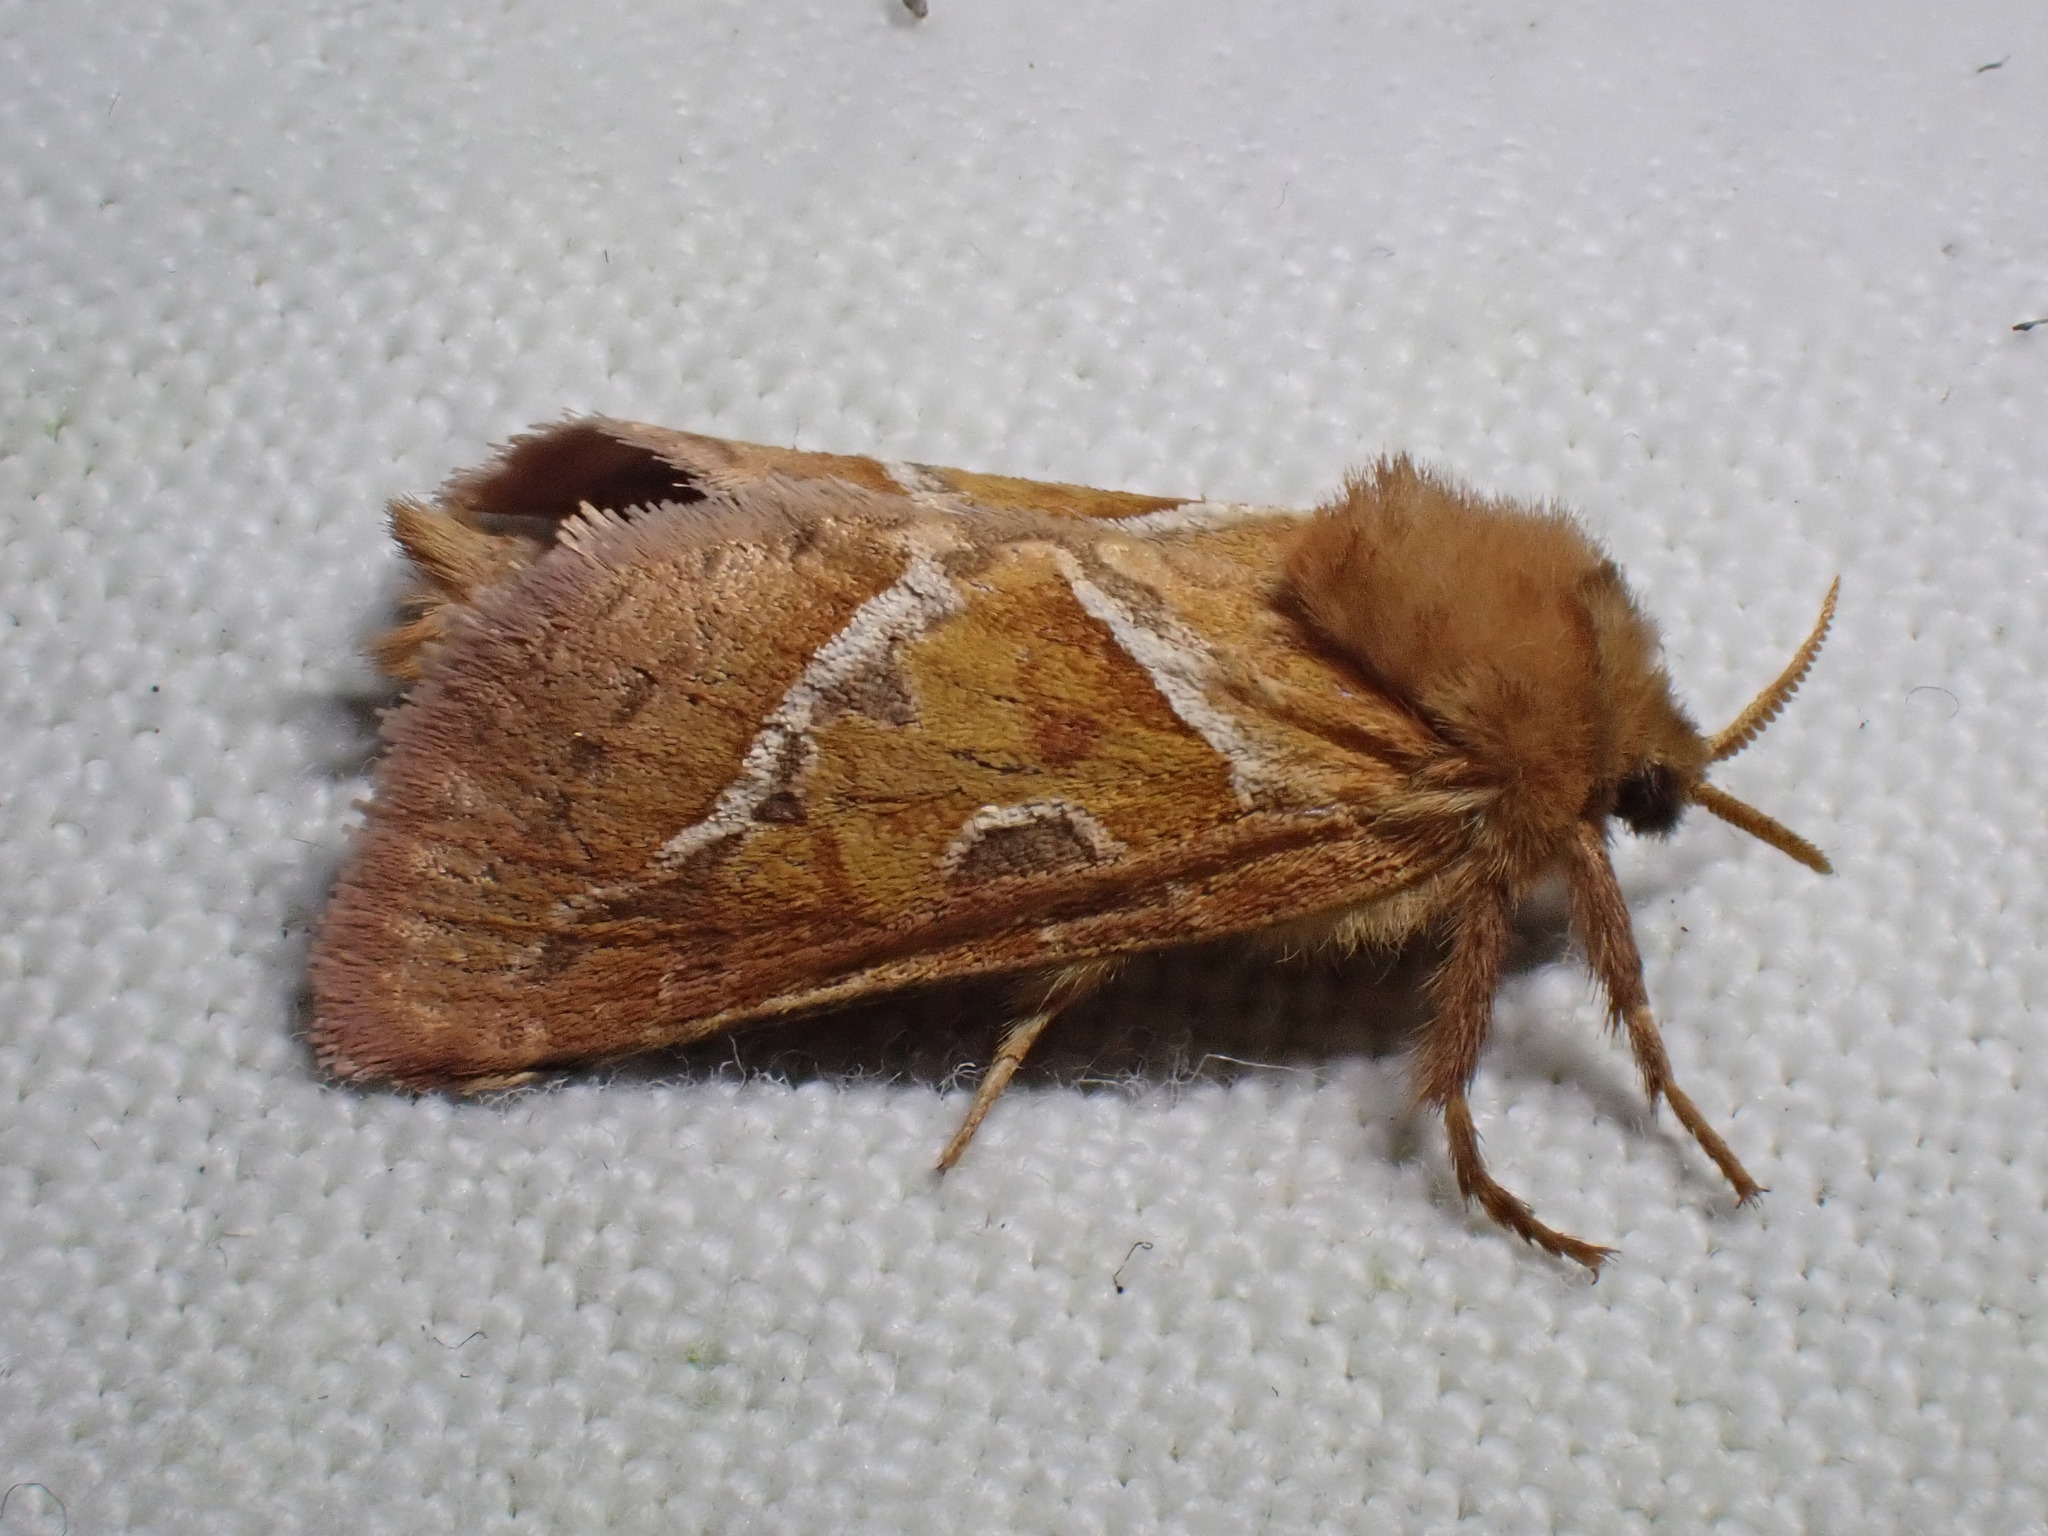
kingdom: Animalia
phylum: Arthropoda
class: Insecta
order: Lepidoptera
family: Hepialidae
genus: Triodia
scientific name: Triodia sylvina
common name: Orange swift
